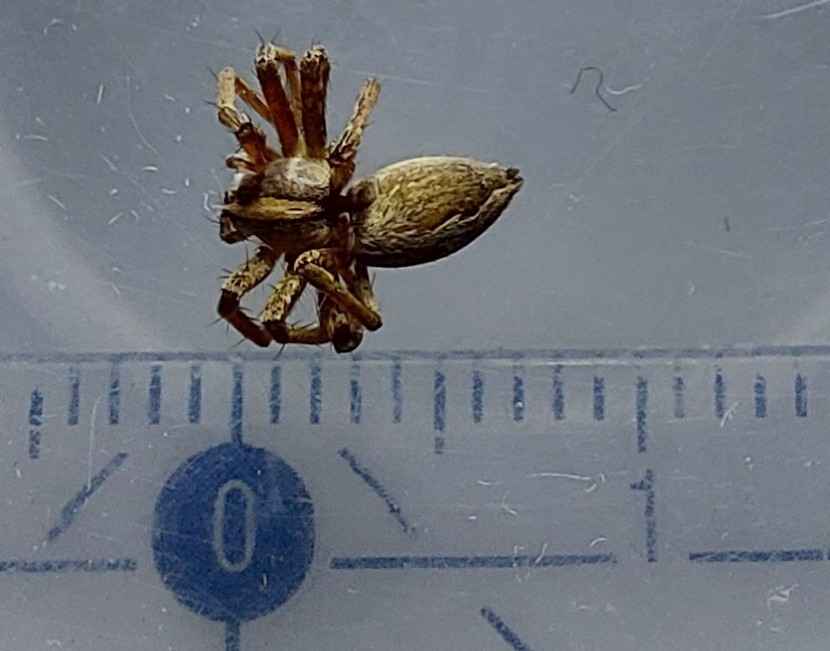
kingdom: Animalia
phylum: Arthropoda
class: Arachnida
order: Araneae
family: Pisauridae
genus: Pisaura
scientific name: Pisaura mirabilis
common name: Tent spider
